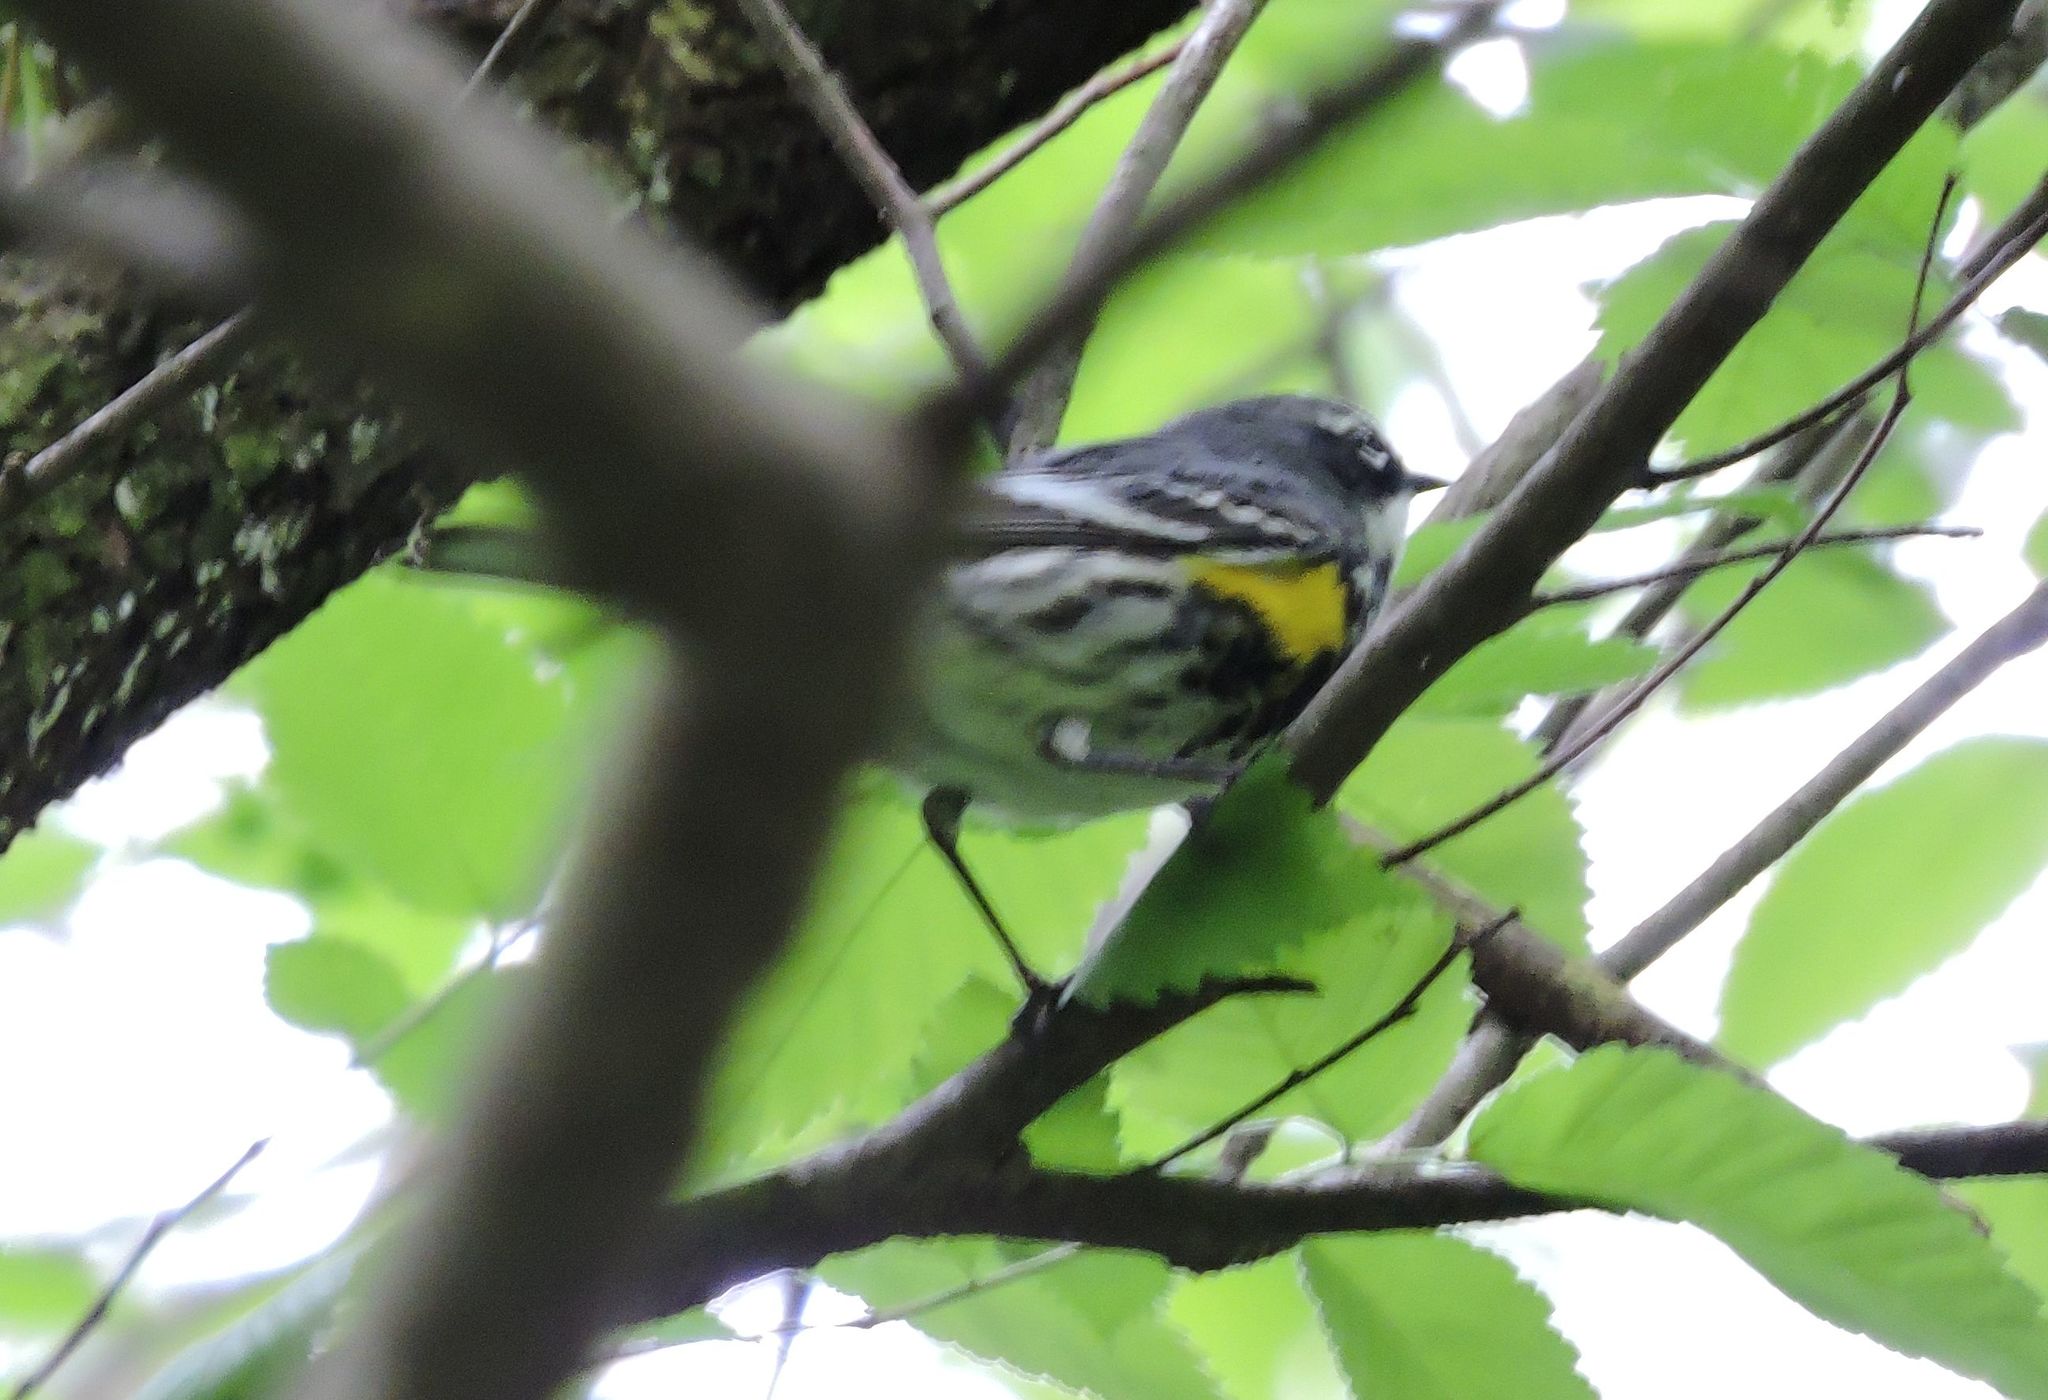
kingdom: Animalia
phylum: Chordata
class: Aves
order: Passeriformes
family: Parulidae
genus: Setophaga
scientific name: Setophaga coronata
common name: Myrtle warbler
